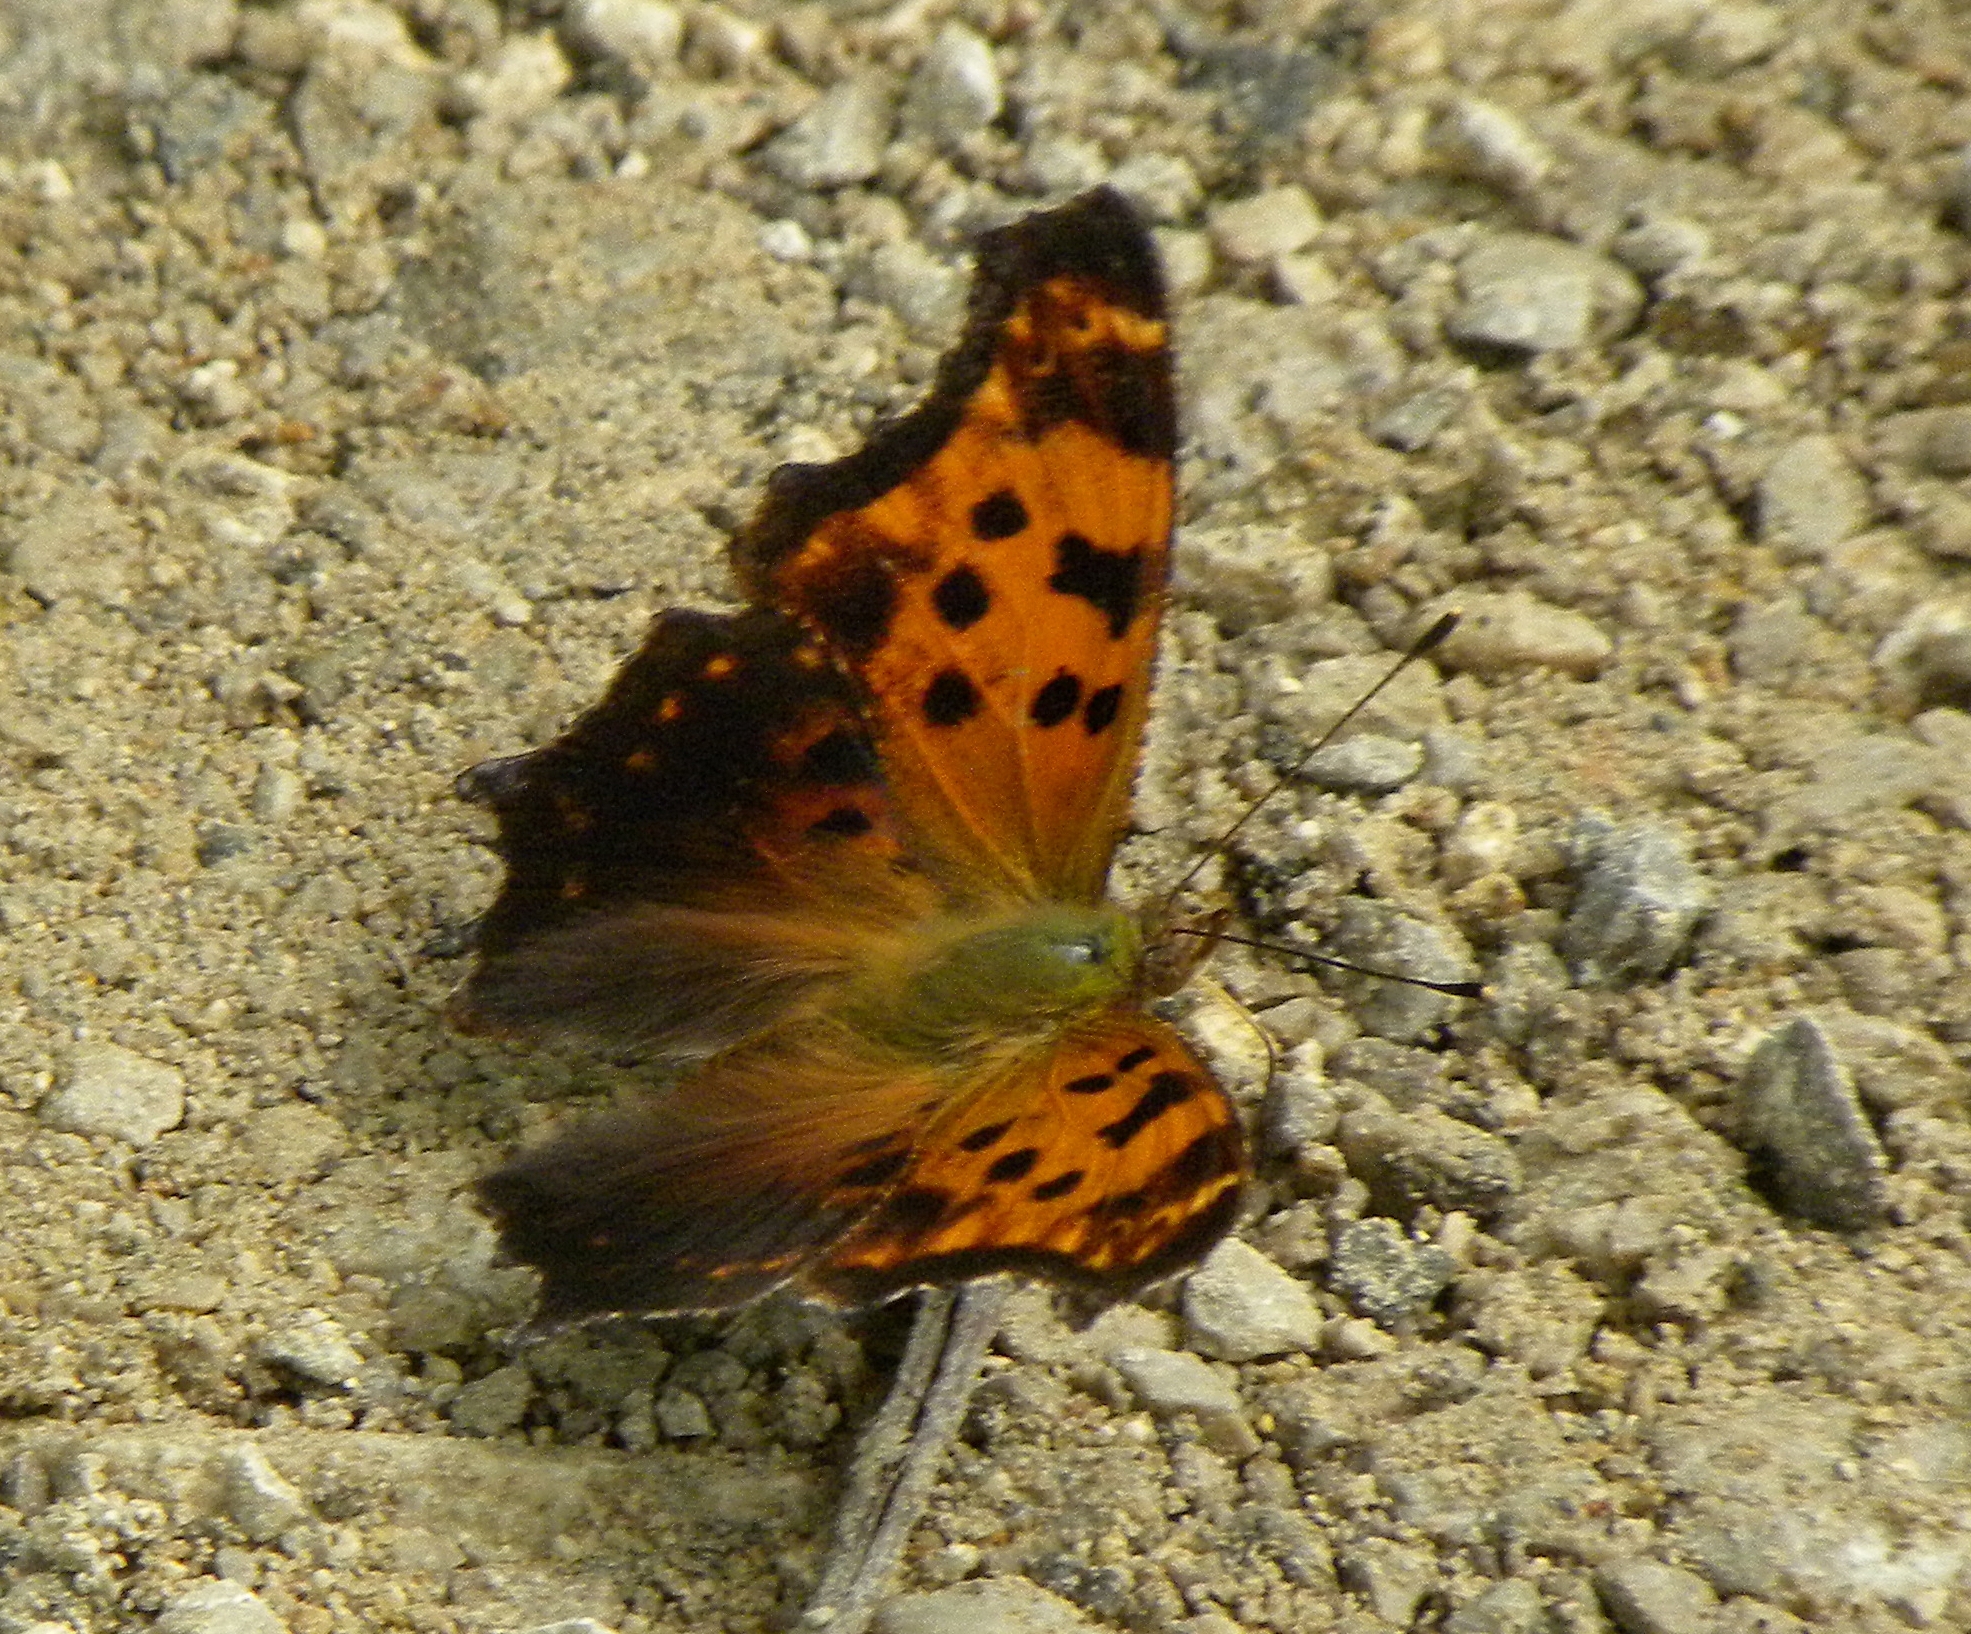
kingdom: Animalia
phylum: Arthropoda
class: Insecta
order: Lepidoptera
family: Nymphalidae
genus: Polygonia
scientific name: Polygonia comma
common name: Eastern comma
